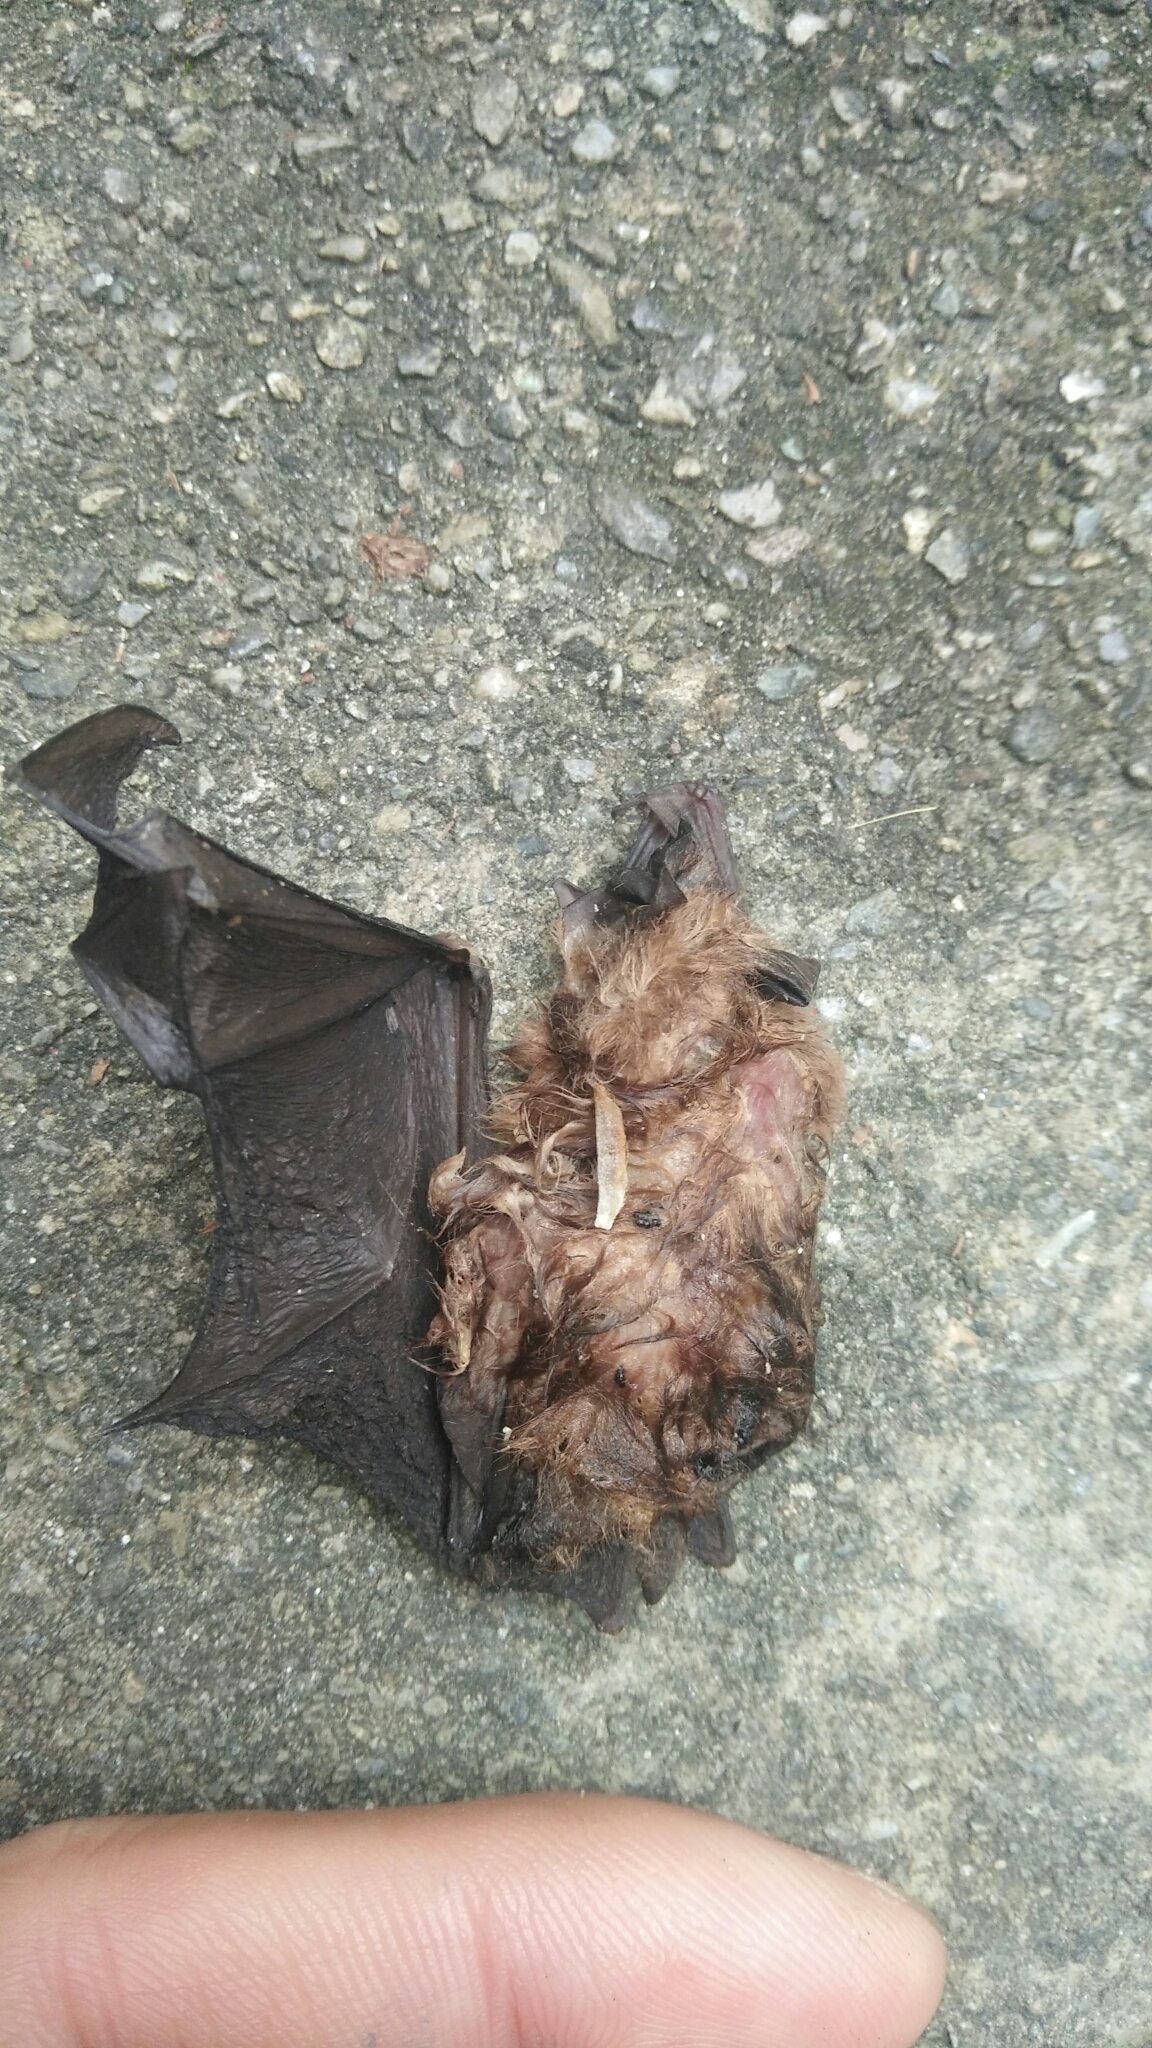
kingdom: Animalia
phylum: Chordata
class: Mammalia
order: Chiroptera
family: Rhinolophidae
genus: Rhinolophus
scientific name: Rhinolophus monoceros
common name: Formosan lesser horseshoe bat
